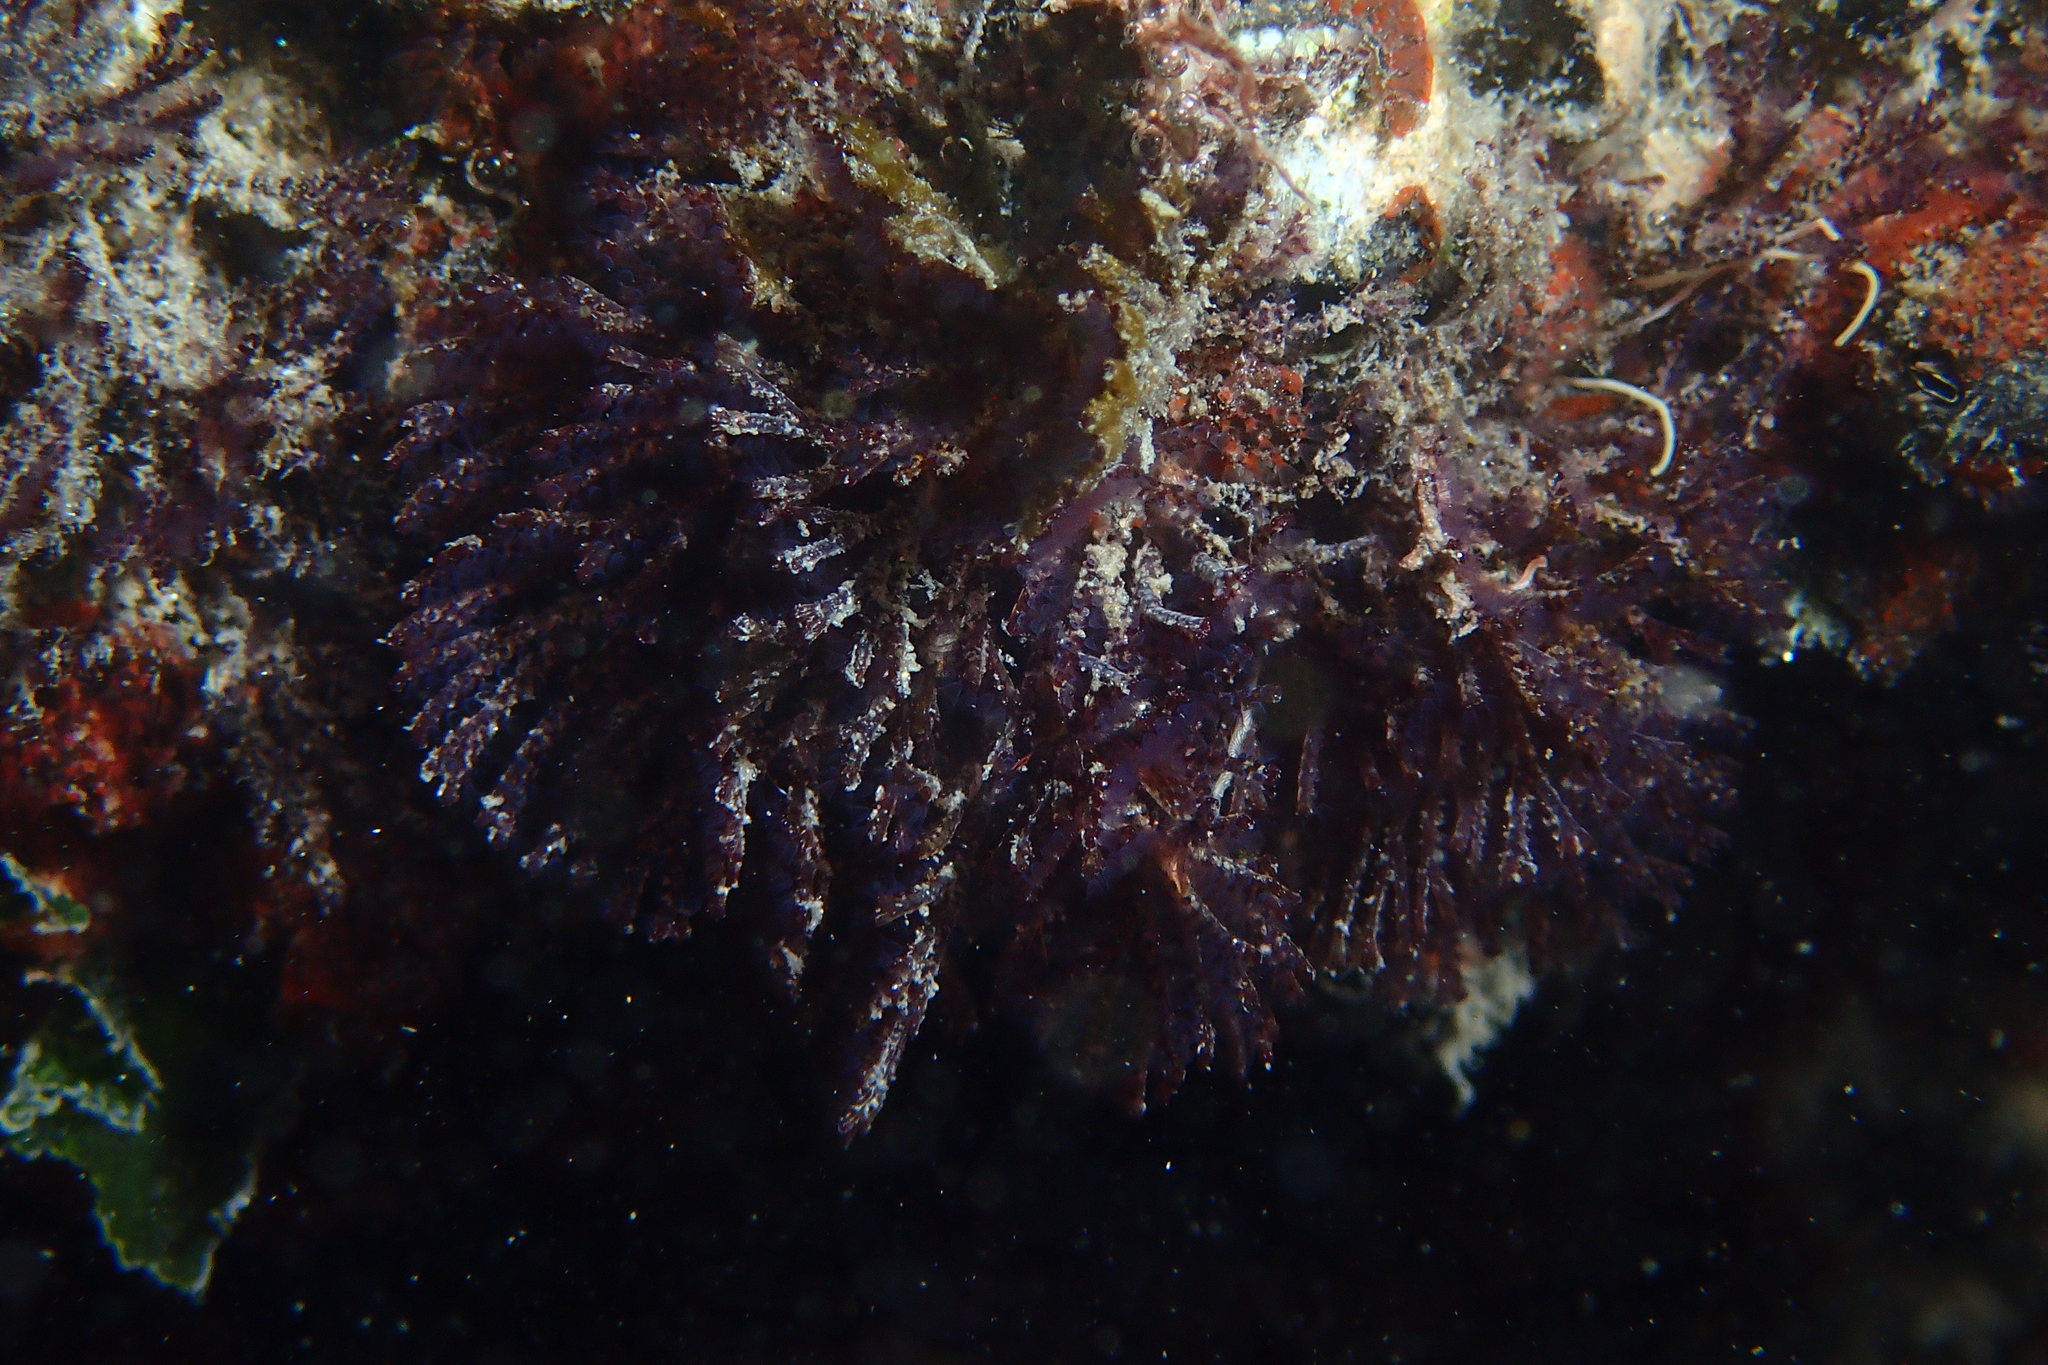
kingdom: Animalia
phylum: Bryozoa
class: Gymnolaemata
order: Cheilostomatida
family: Bugulidae
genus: Bugula
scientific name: Bugula neritina
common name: Brown bryozoan
